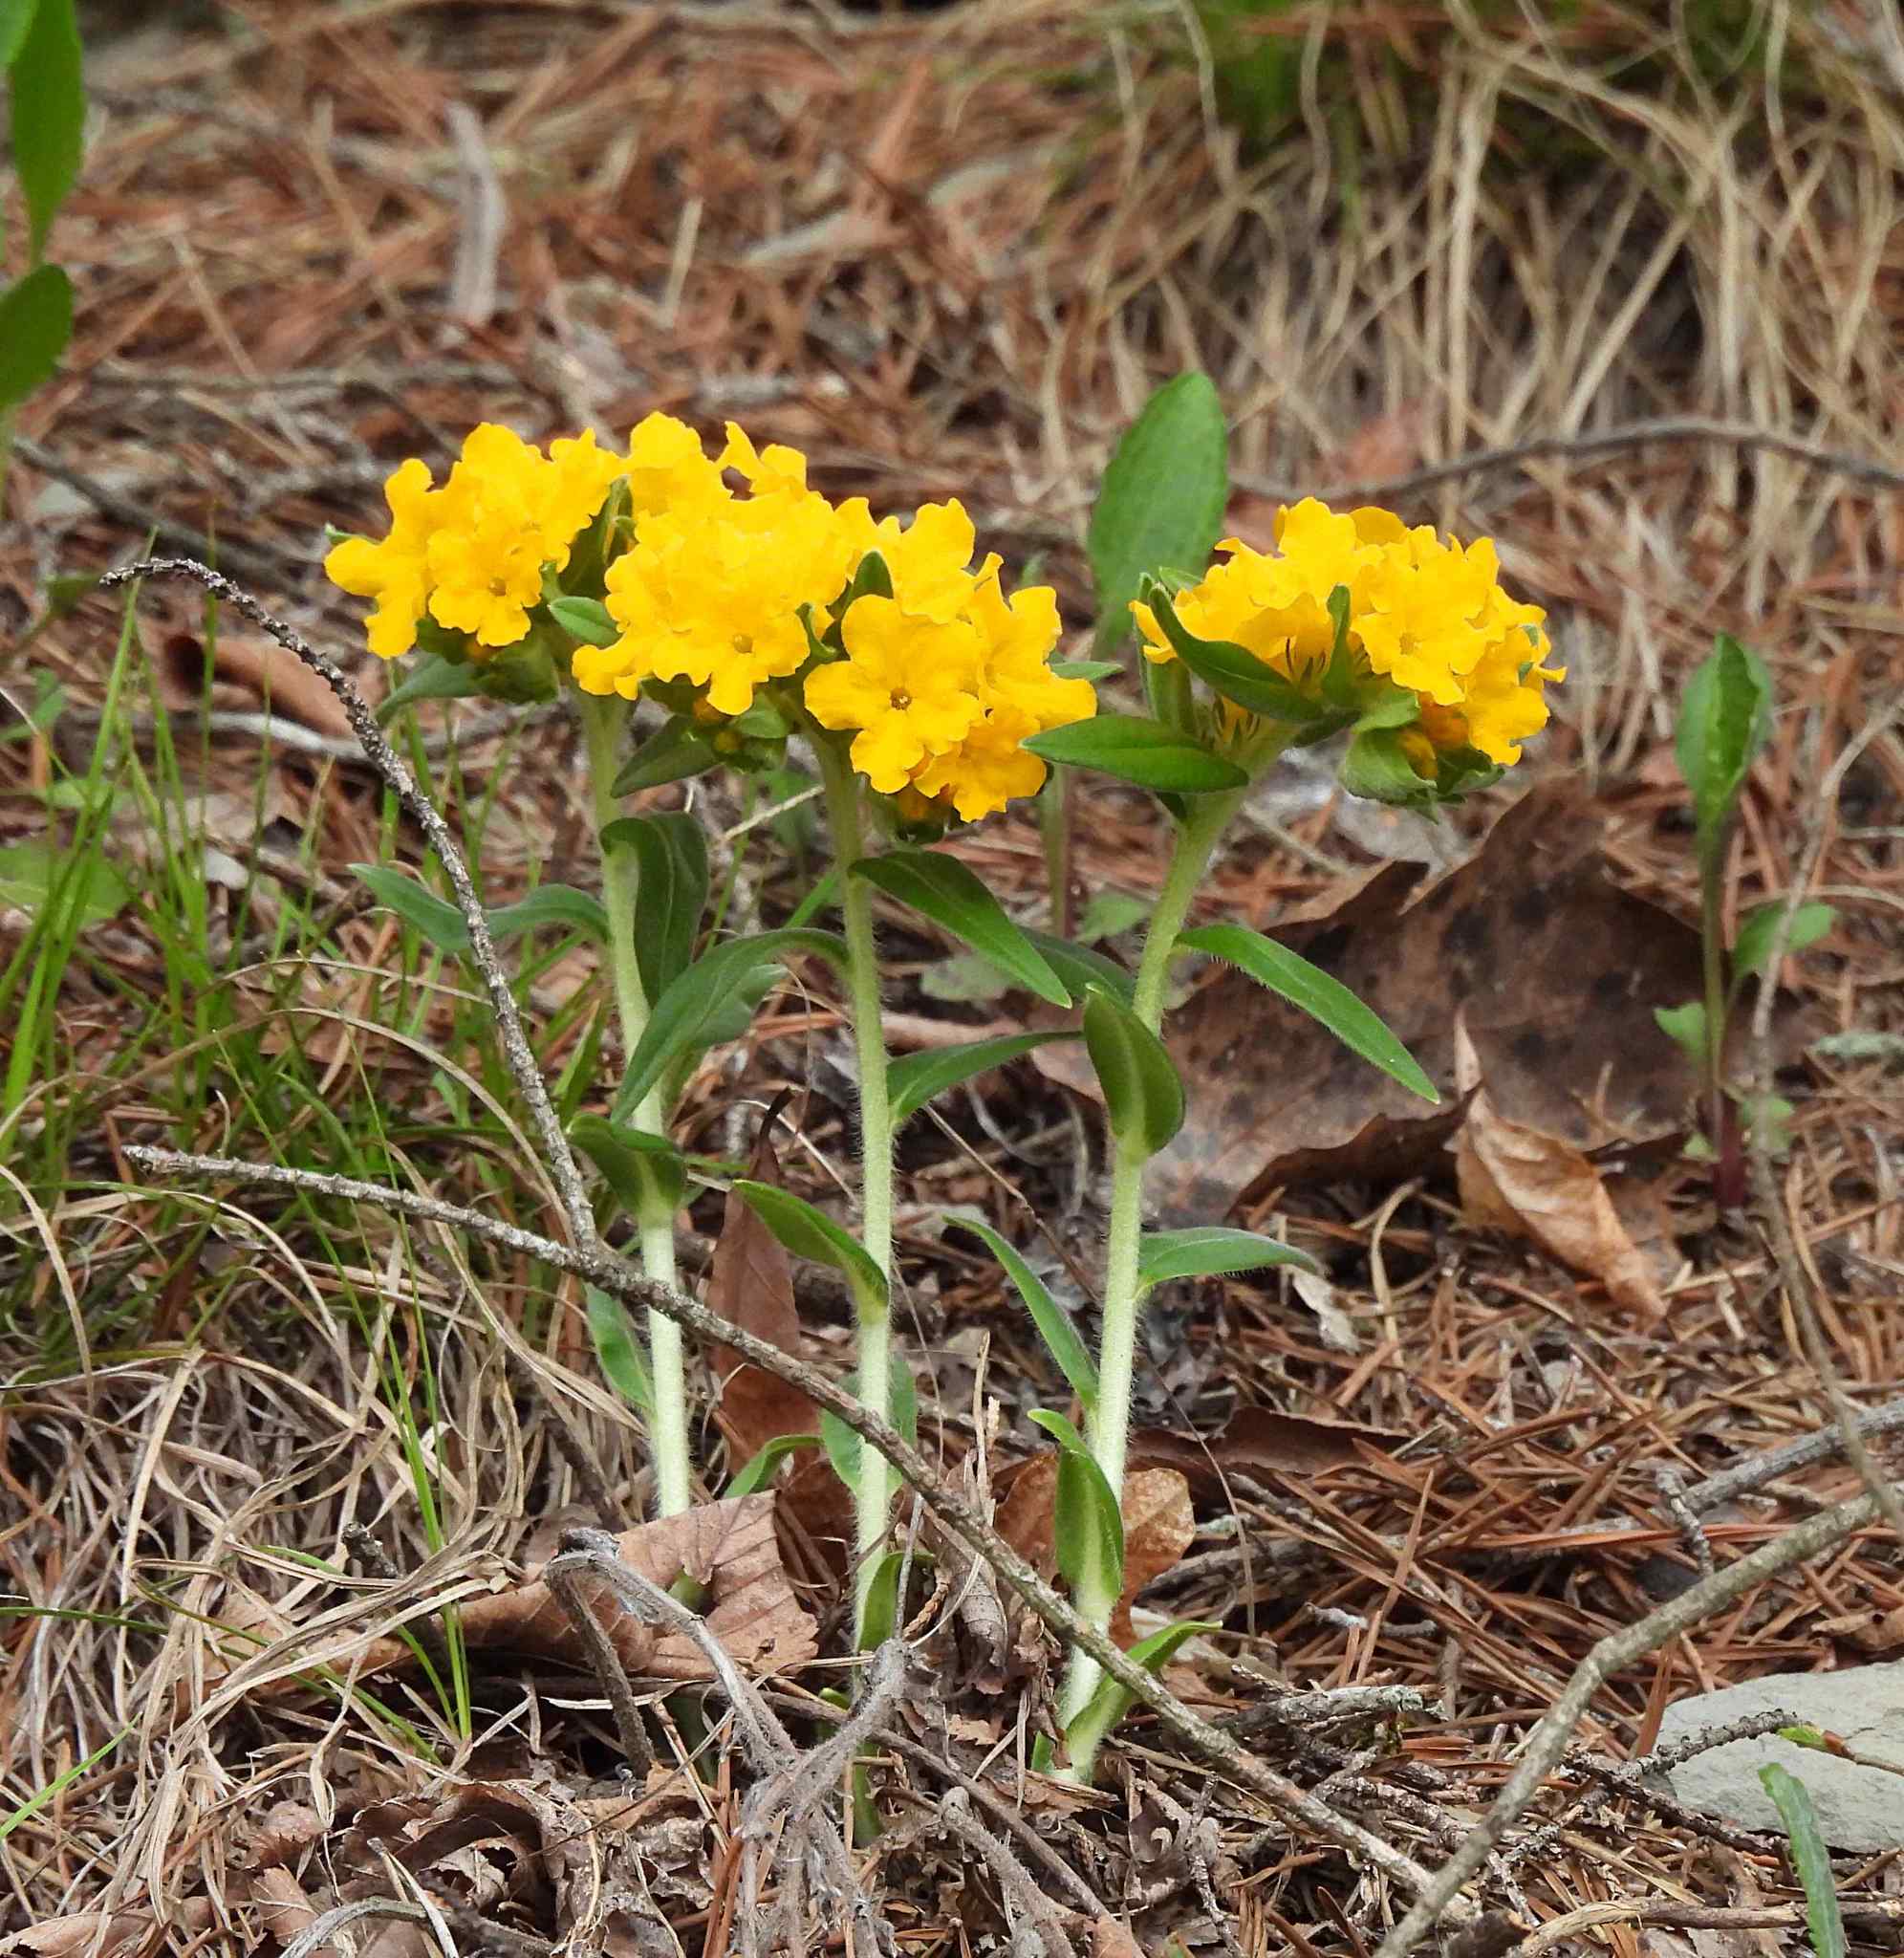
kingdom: Plantae
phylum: Tracheophyta
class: Magnoliopsida
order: Boraginales
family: Boraginaceae
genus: Lithospermum
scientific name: Lithospermum canescens
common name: Hoary puccoon
